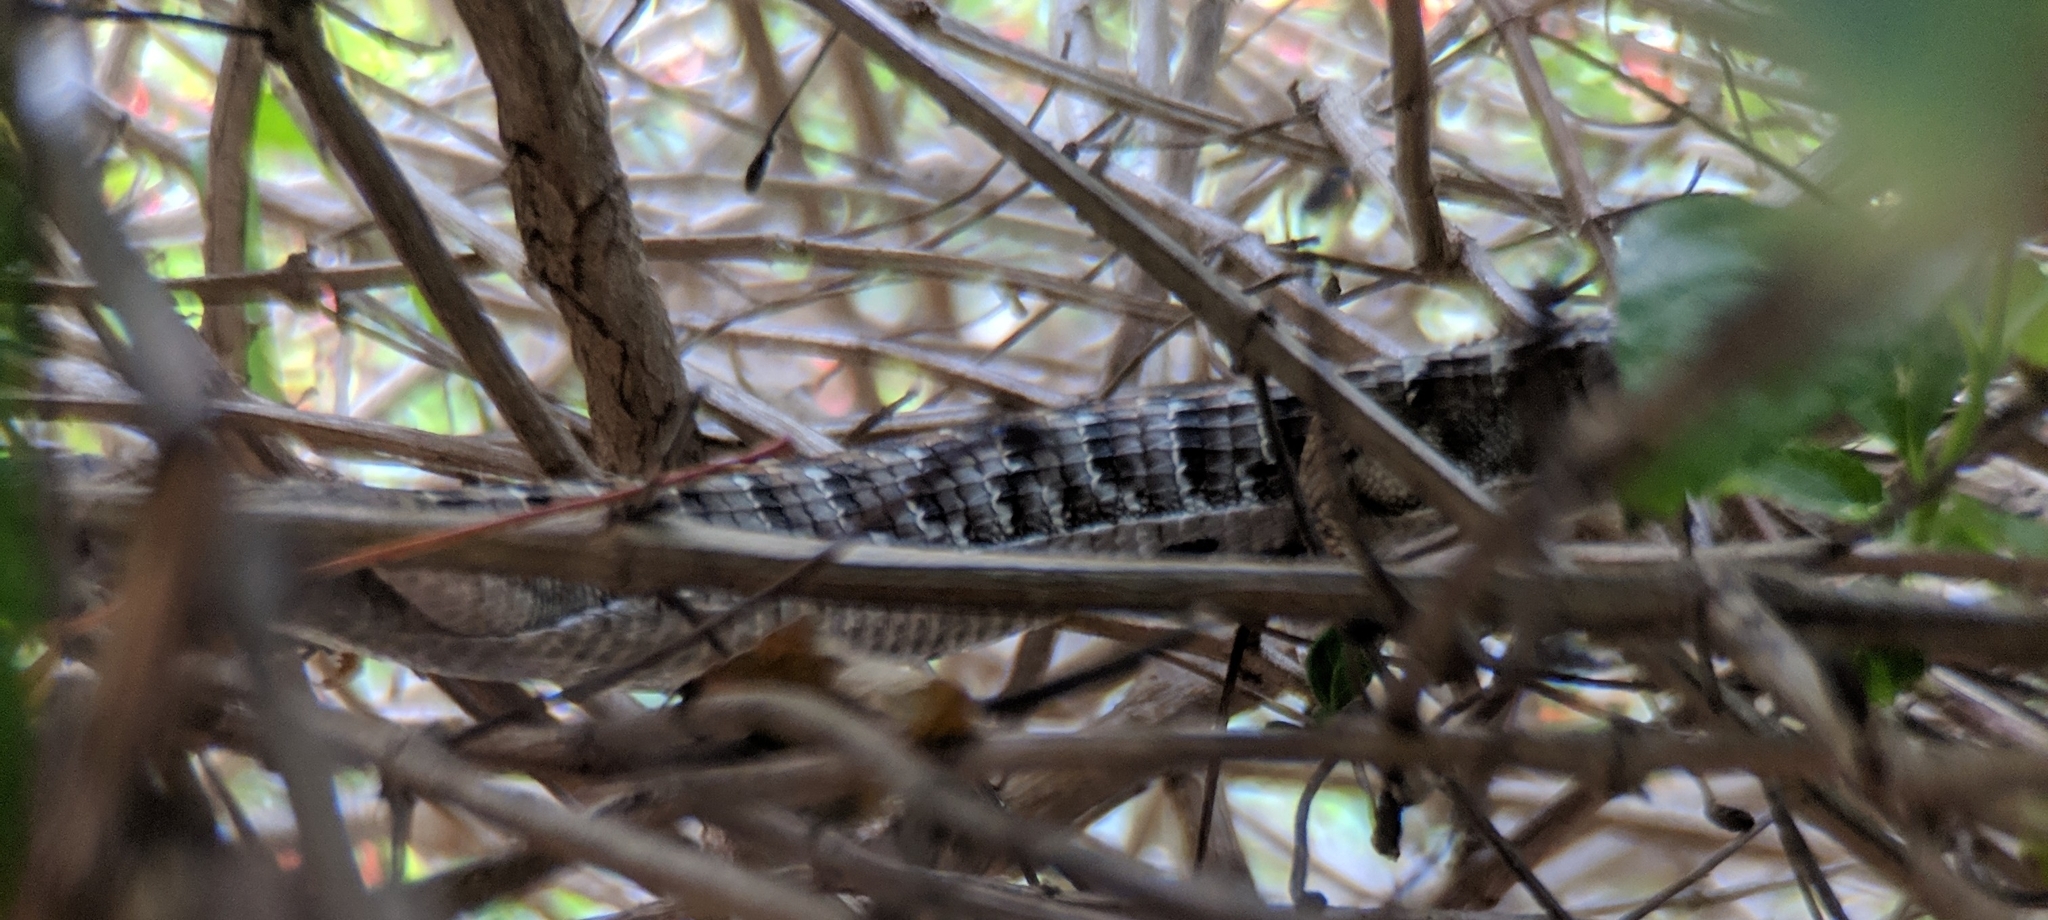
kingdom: Animalia
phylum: Chordata
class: Squamata
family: Anguidae
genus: Elgaria
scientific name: Elgaria multicarinata
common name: Southern alligator lizard
